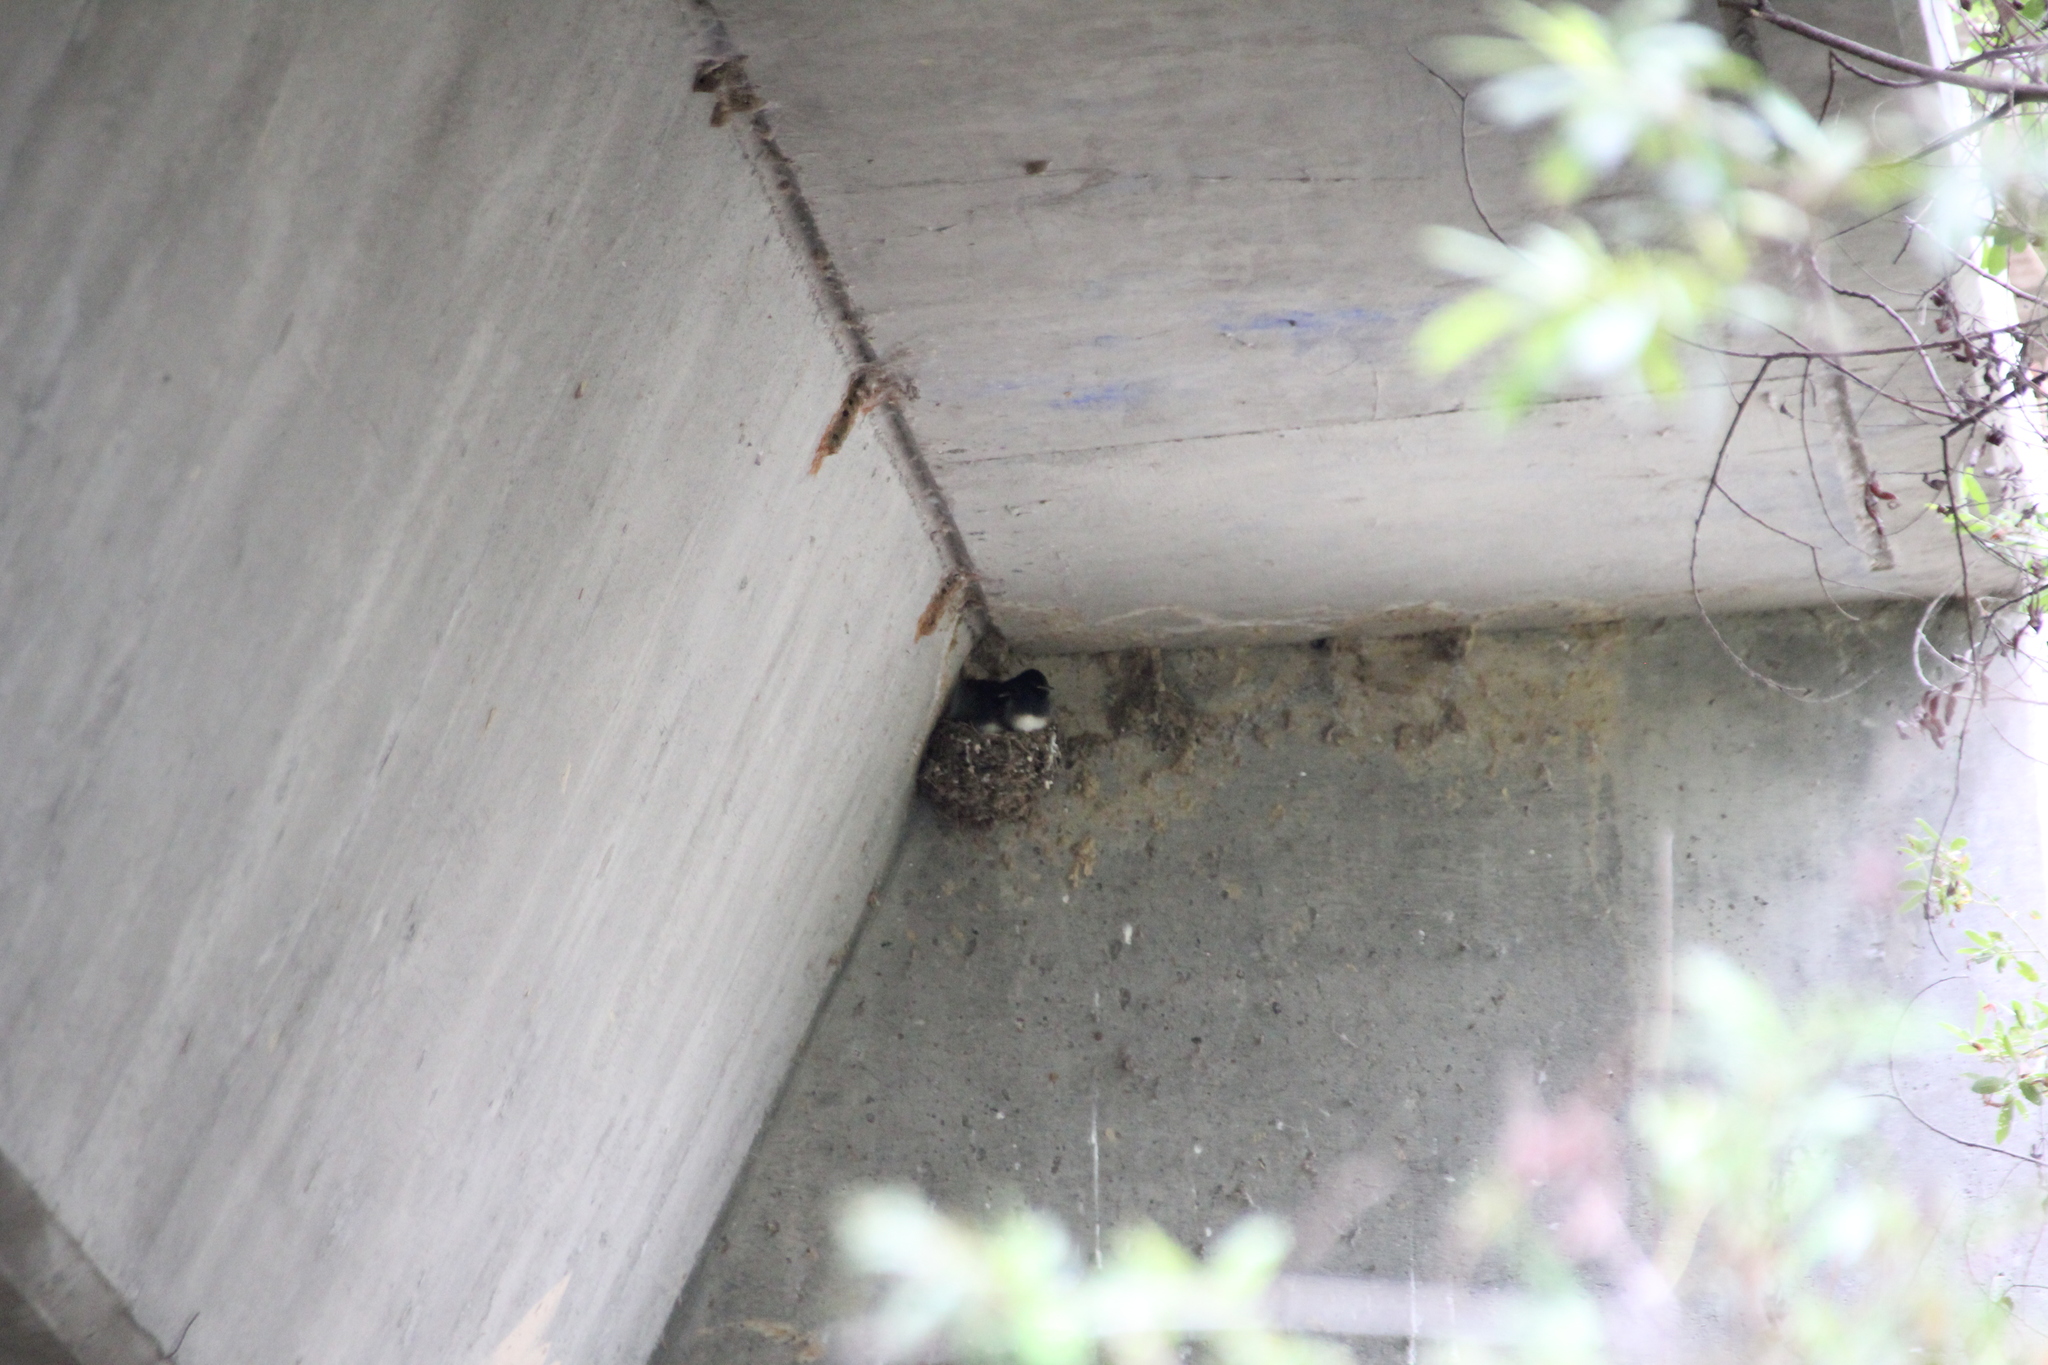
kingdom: Animalia
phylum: Chordata
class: Aves
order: Passeriformes
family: Tyrannidae
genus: Sayornis
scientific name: Sayornis nigricans
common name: Black phoebe
